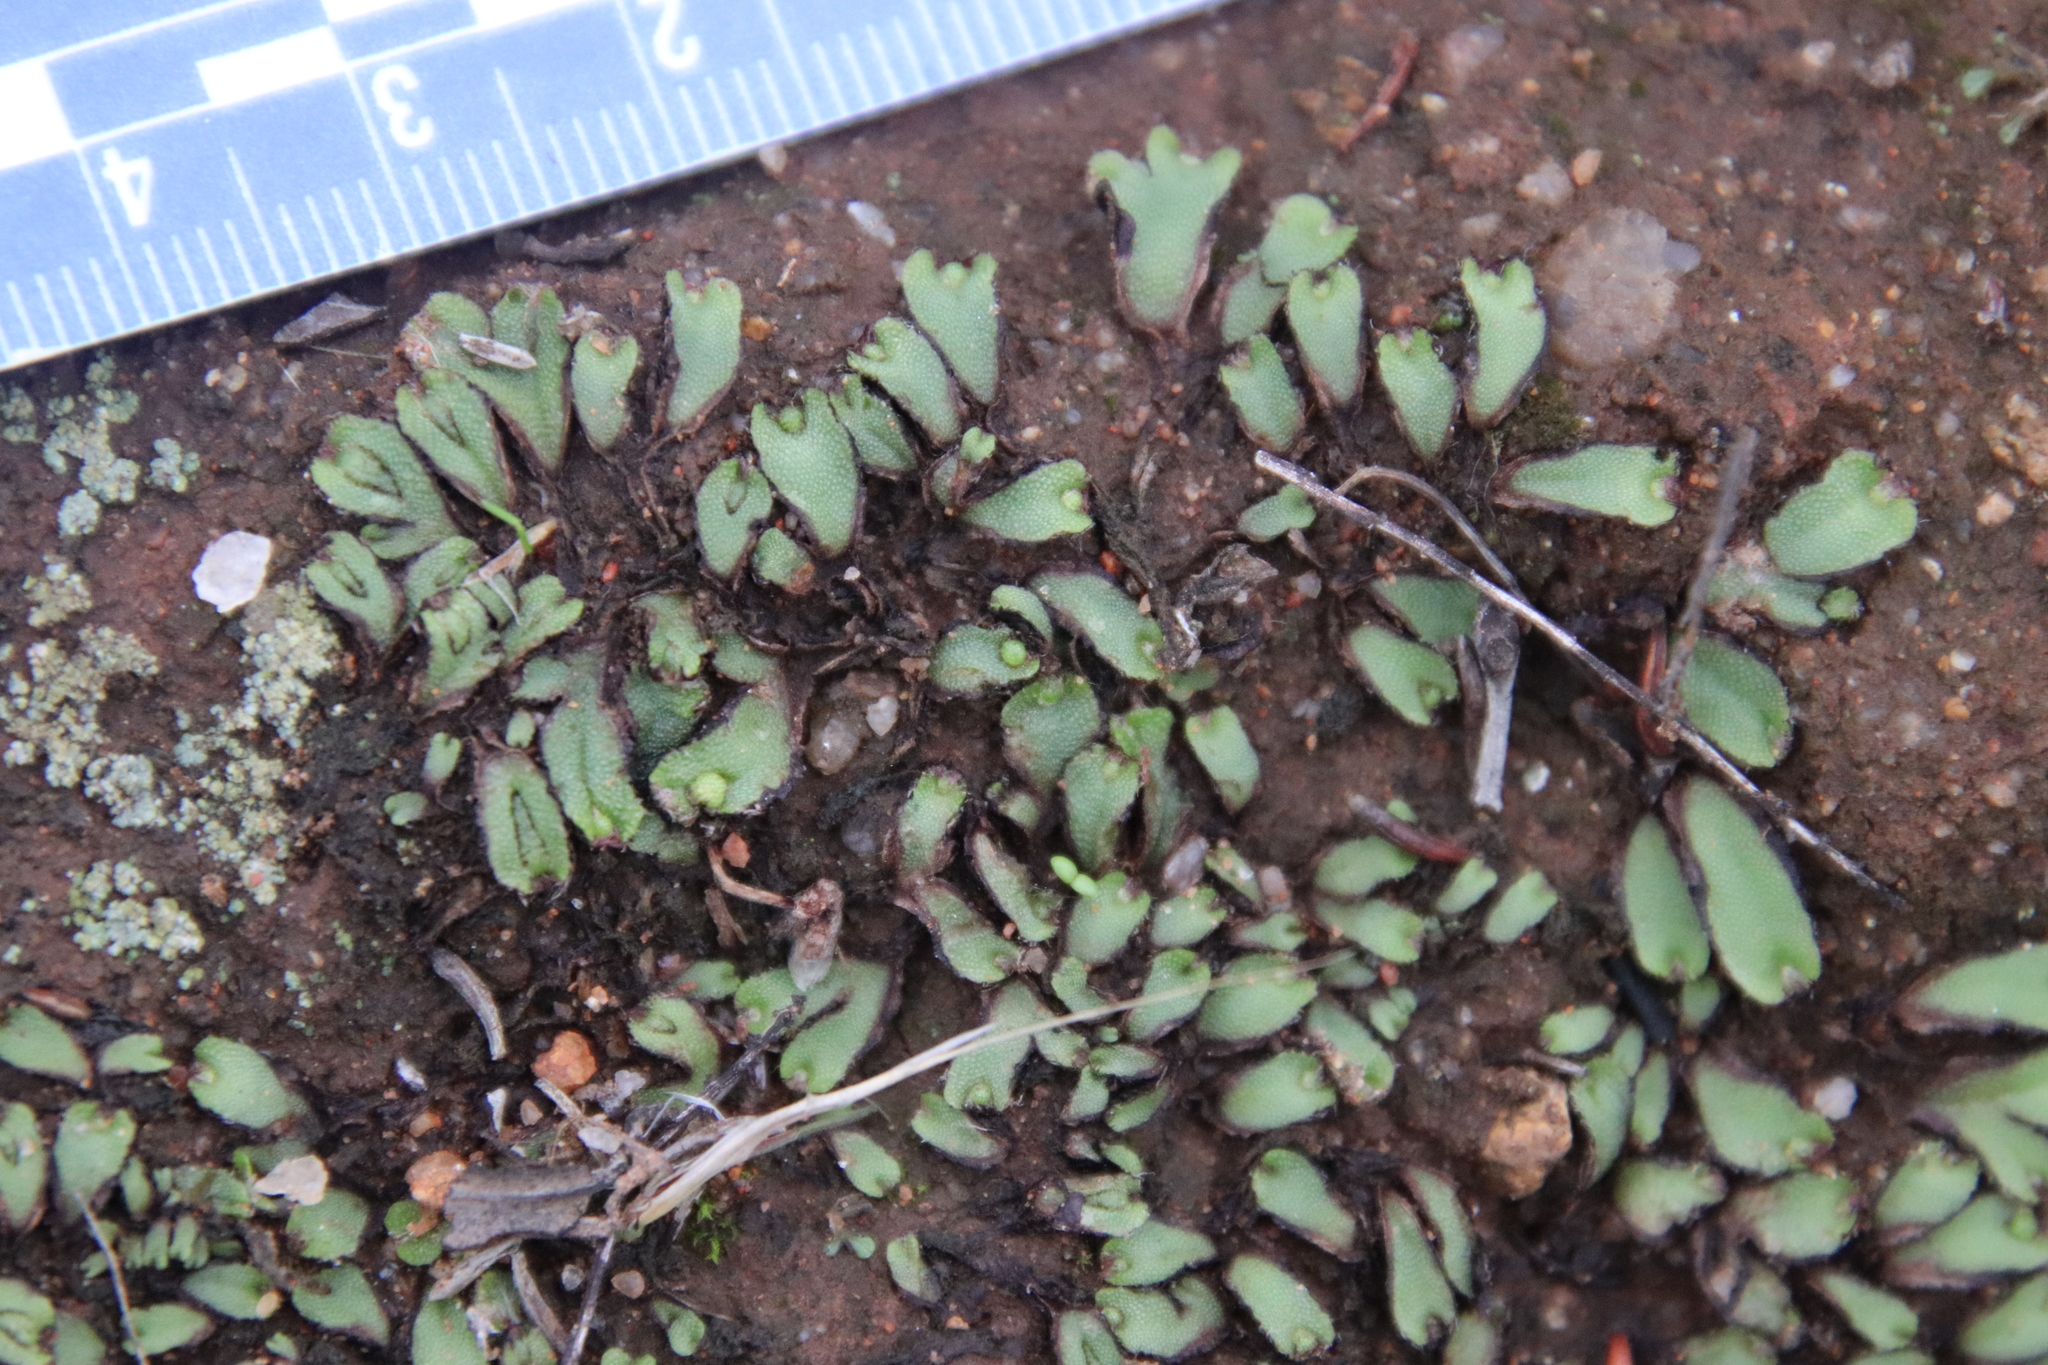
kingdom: Plantae
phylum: Marchantiophyta
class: Marchantiopsida
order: Marchantiales
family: Aytoniaceae
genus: Asterella
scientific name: Asterella californica
